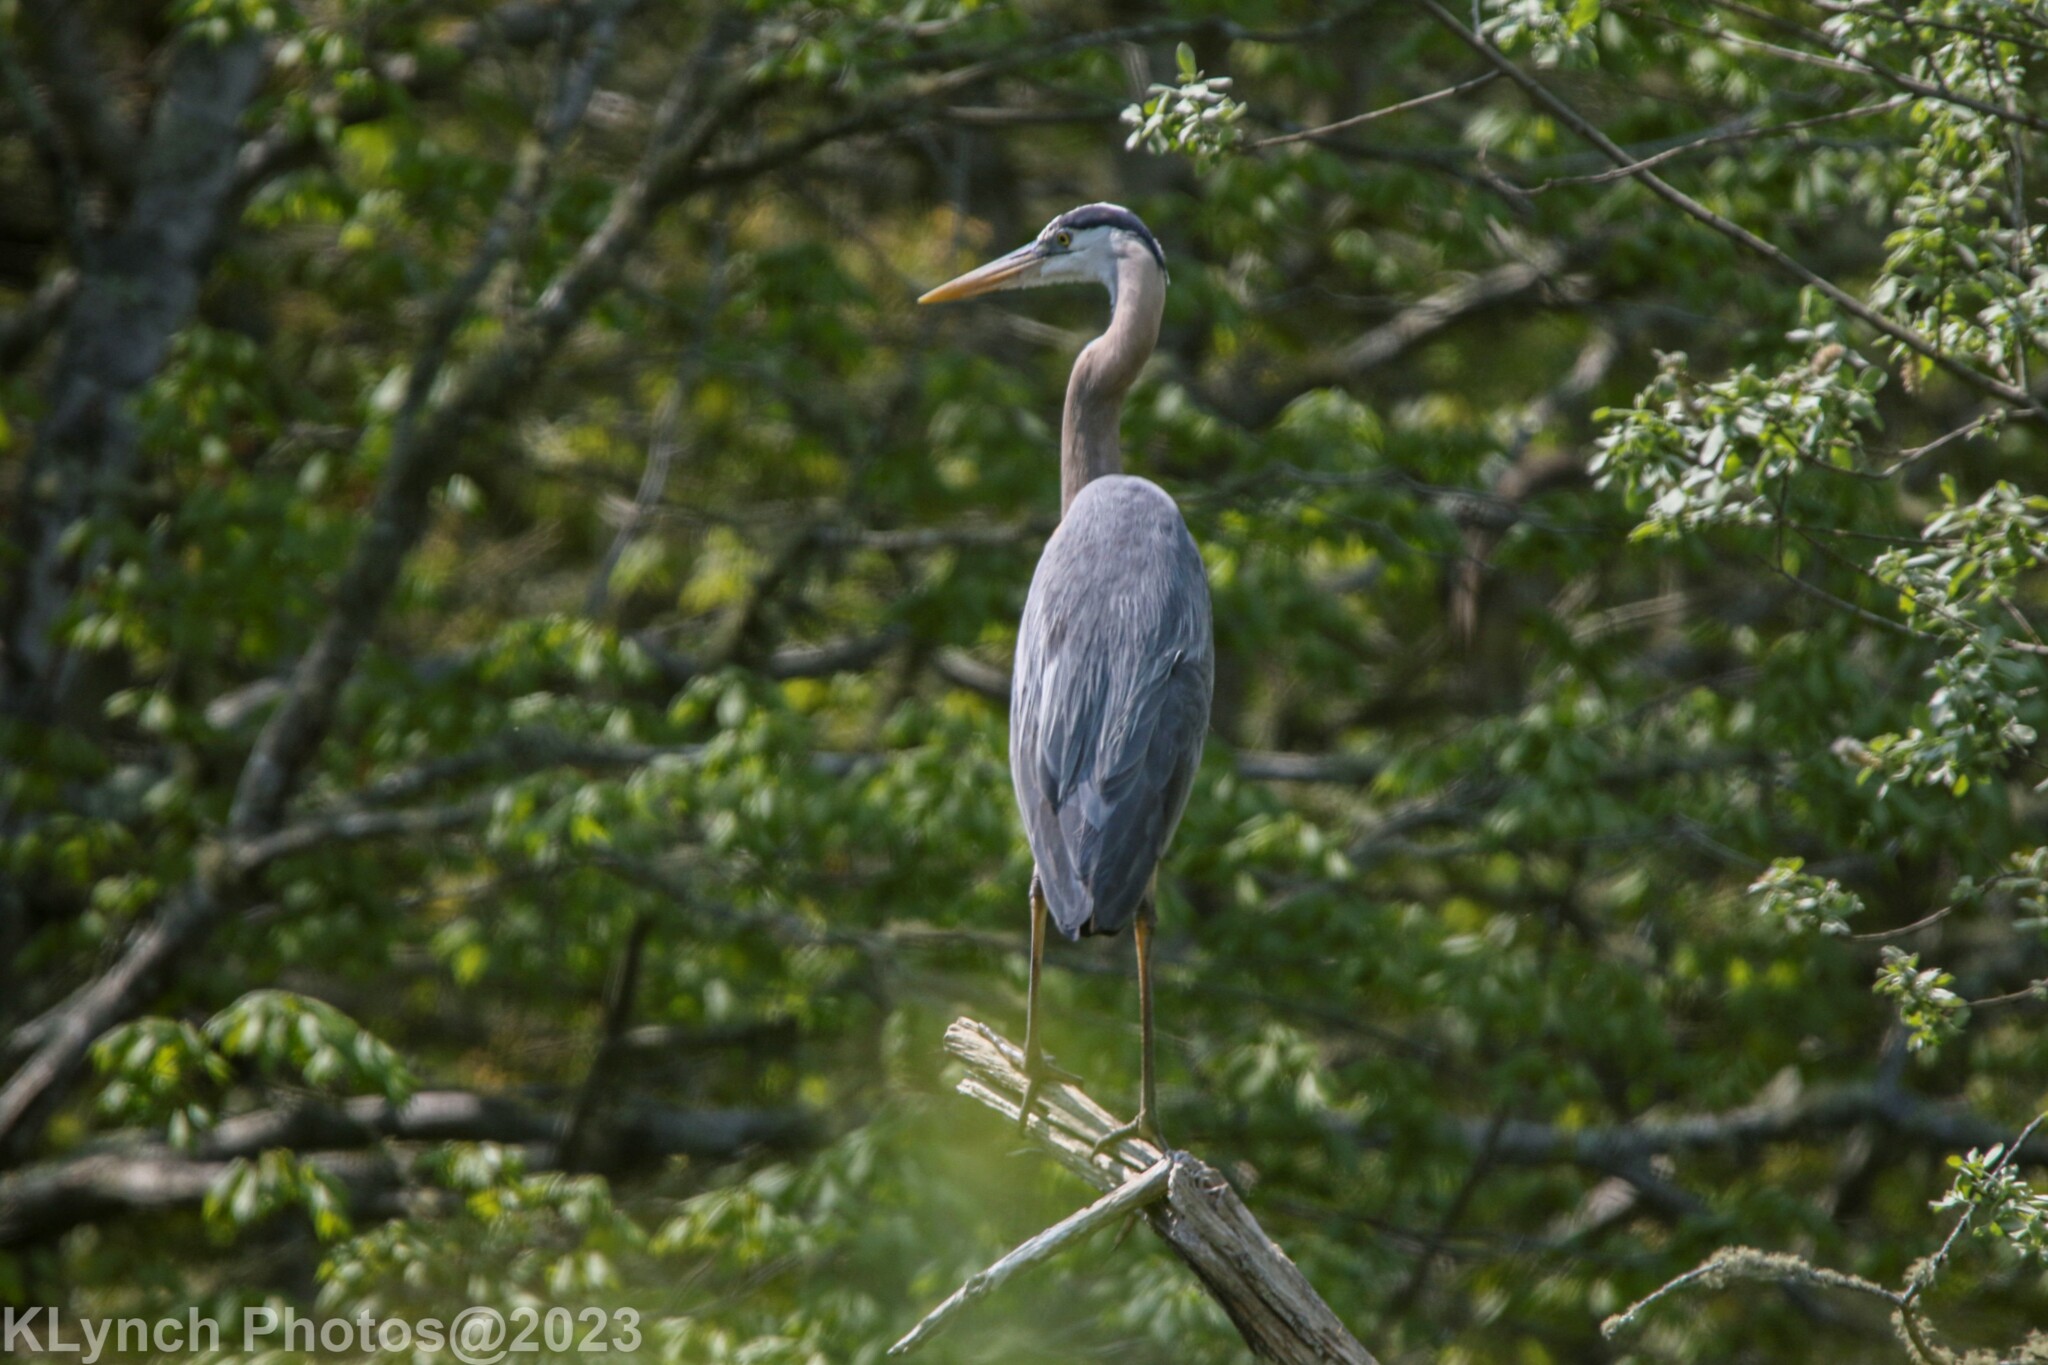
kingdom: Animalia
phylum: Chordata
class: Aves
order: Pelecaniformes
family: Ardeidae
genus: Ardea
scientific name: Ardea herodias
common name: Great blue heron
